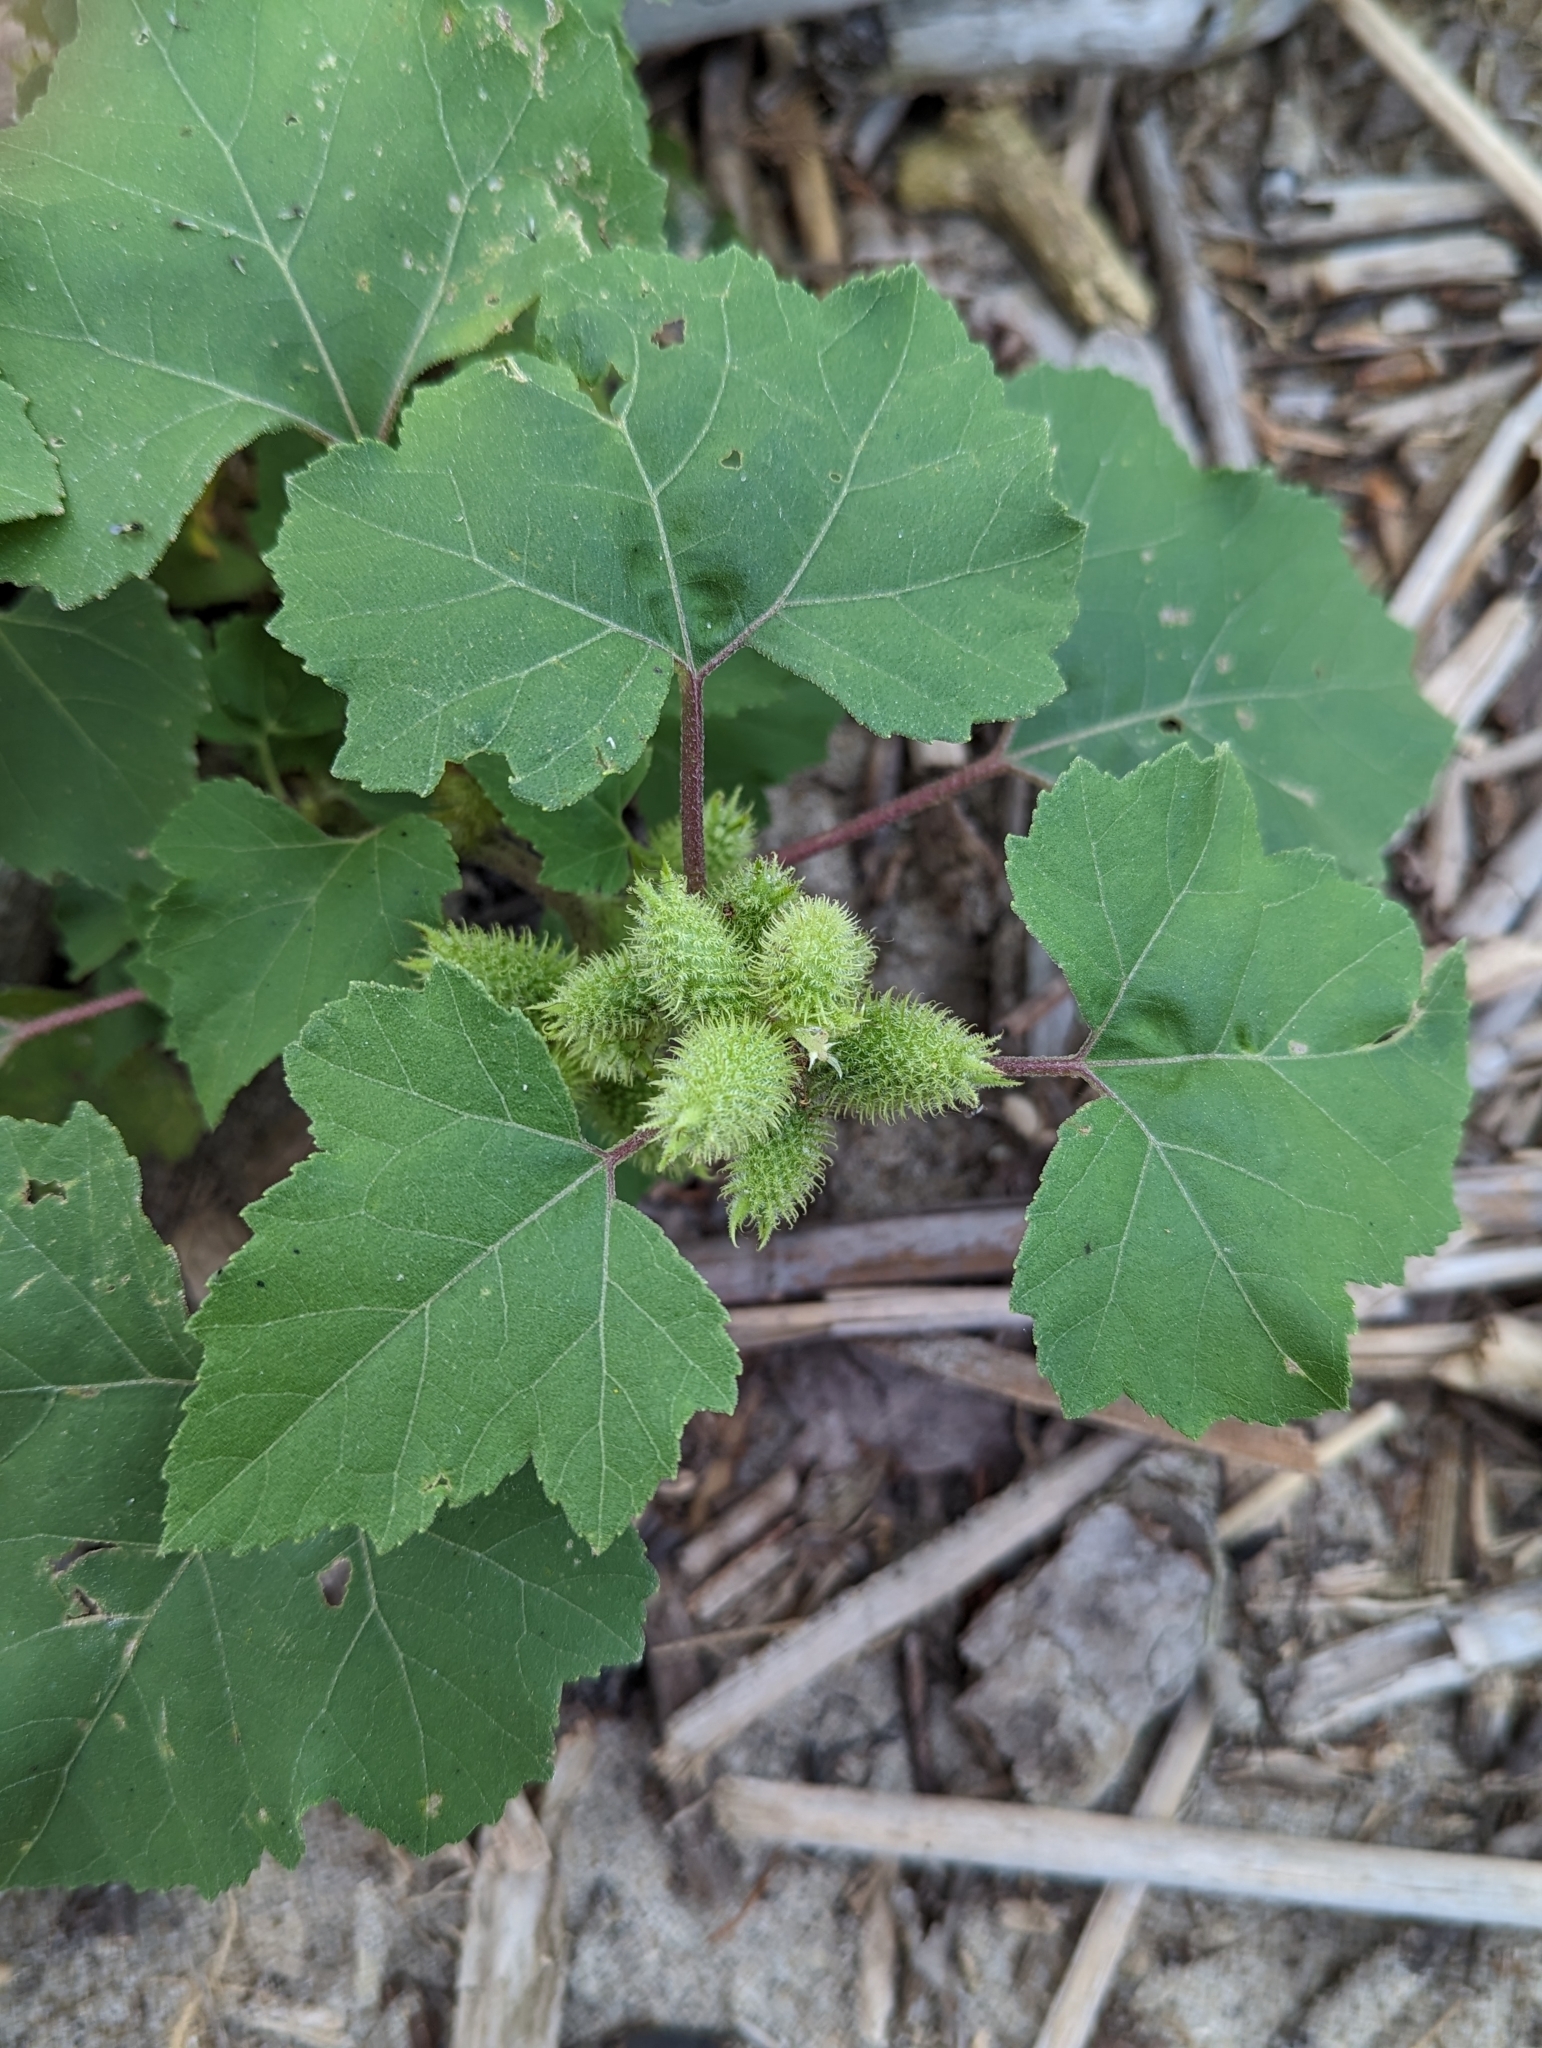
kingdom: Plantae
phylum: Tracheophyta
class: Magnoliopsida
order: Asterales
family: Asteraceae
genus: Xanthium
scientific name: Xanthium strumarium
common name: Rough cocklebur
